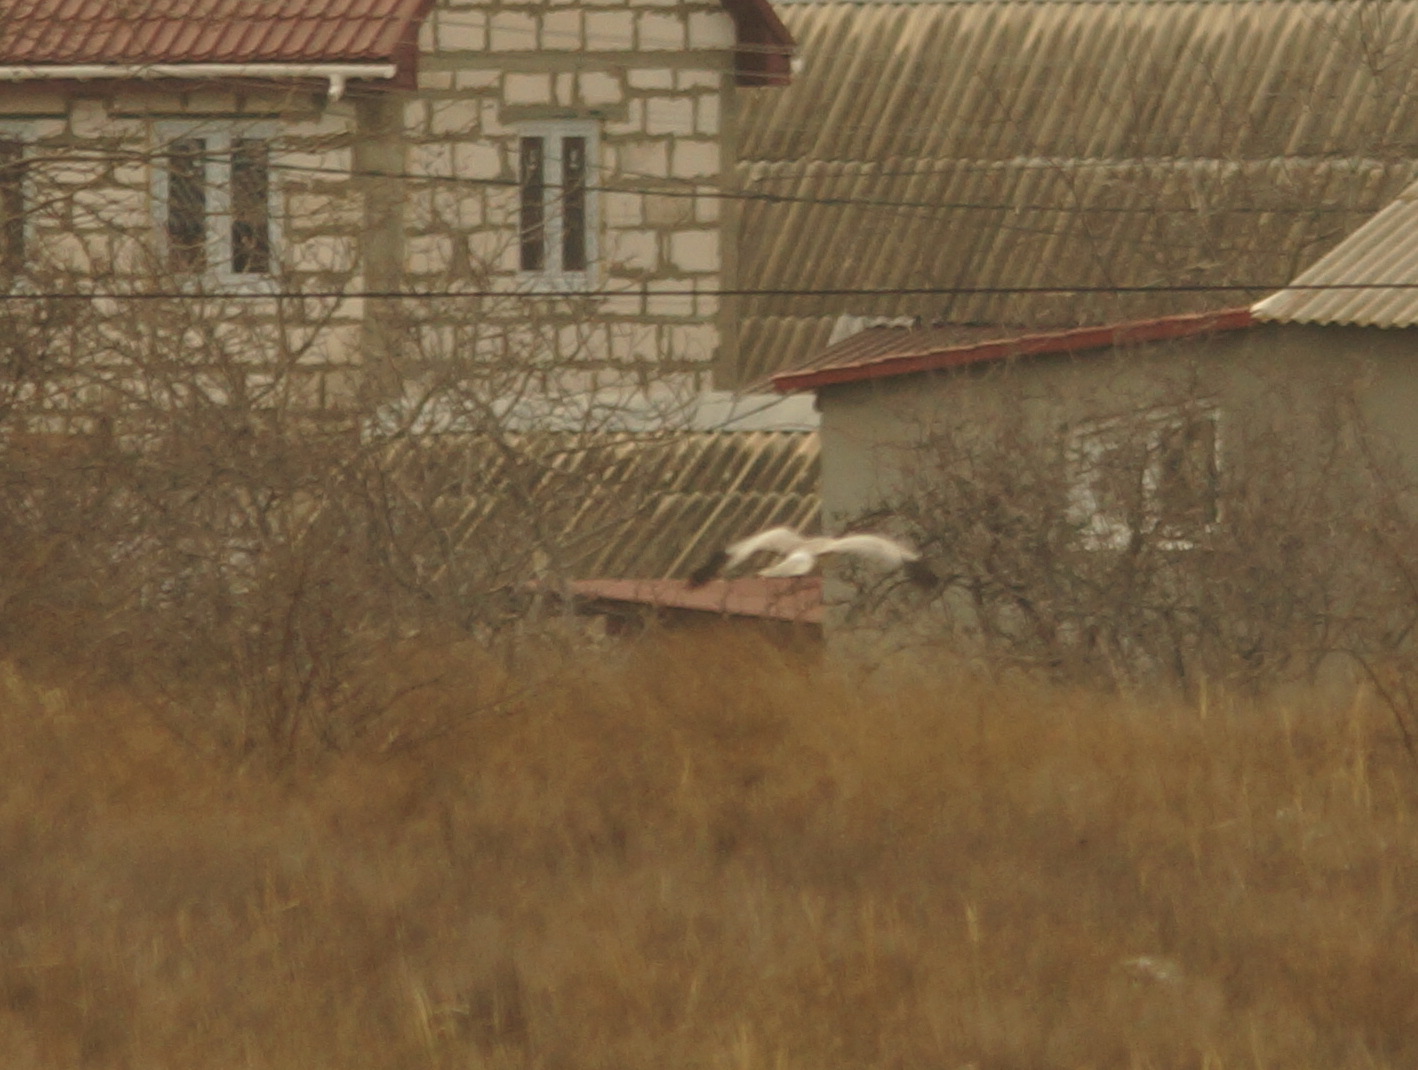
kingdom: Animalia
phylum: Chordata
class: Aves
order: Accipitriformes
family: Accipitridae
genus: Circus
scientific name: Circus cyaneus
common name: Hen harrier
